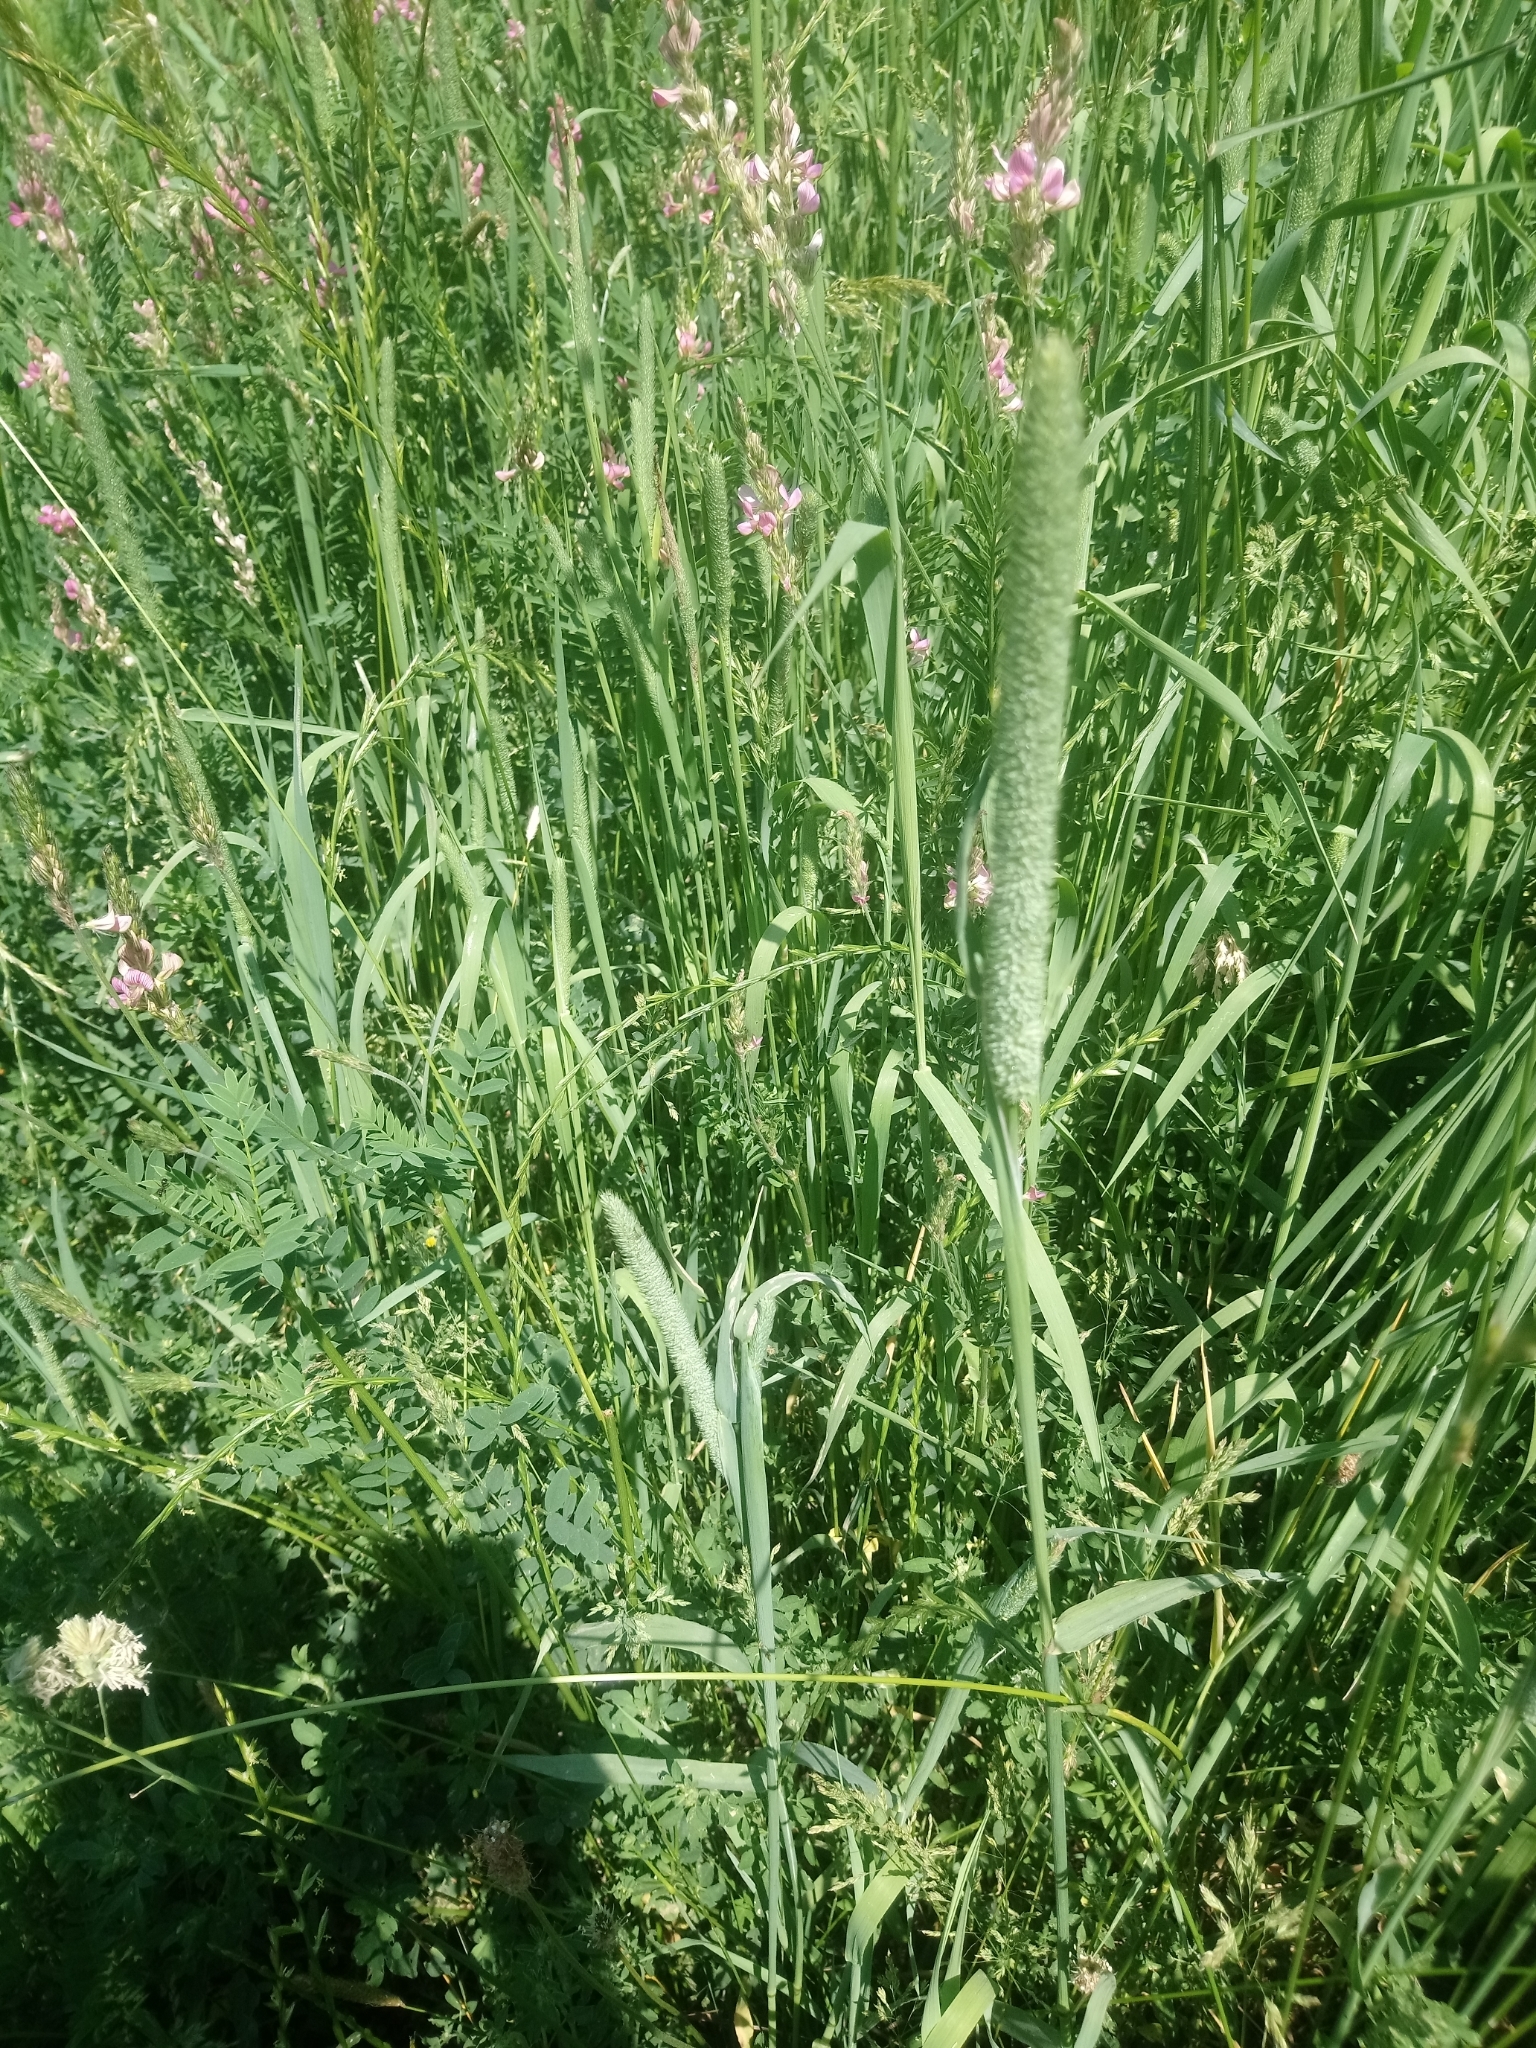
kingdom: Plantae
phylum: Tracheophyta
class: Liliopsida
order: Poales
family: Poaceae
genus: Phleum
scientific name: Phleum pratense
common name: Timothy grass
